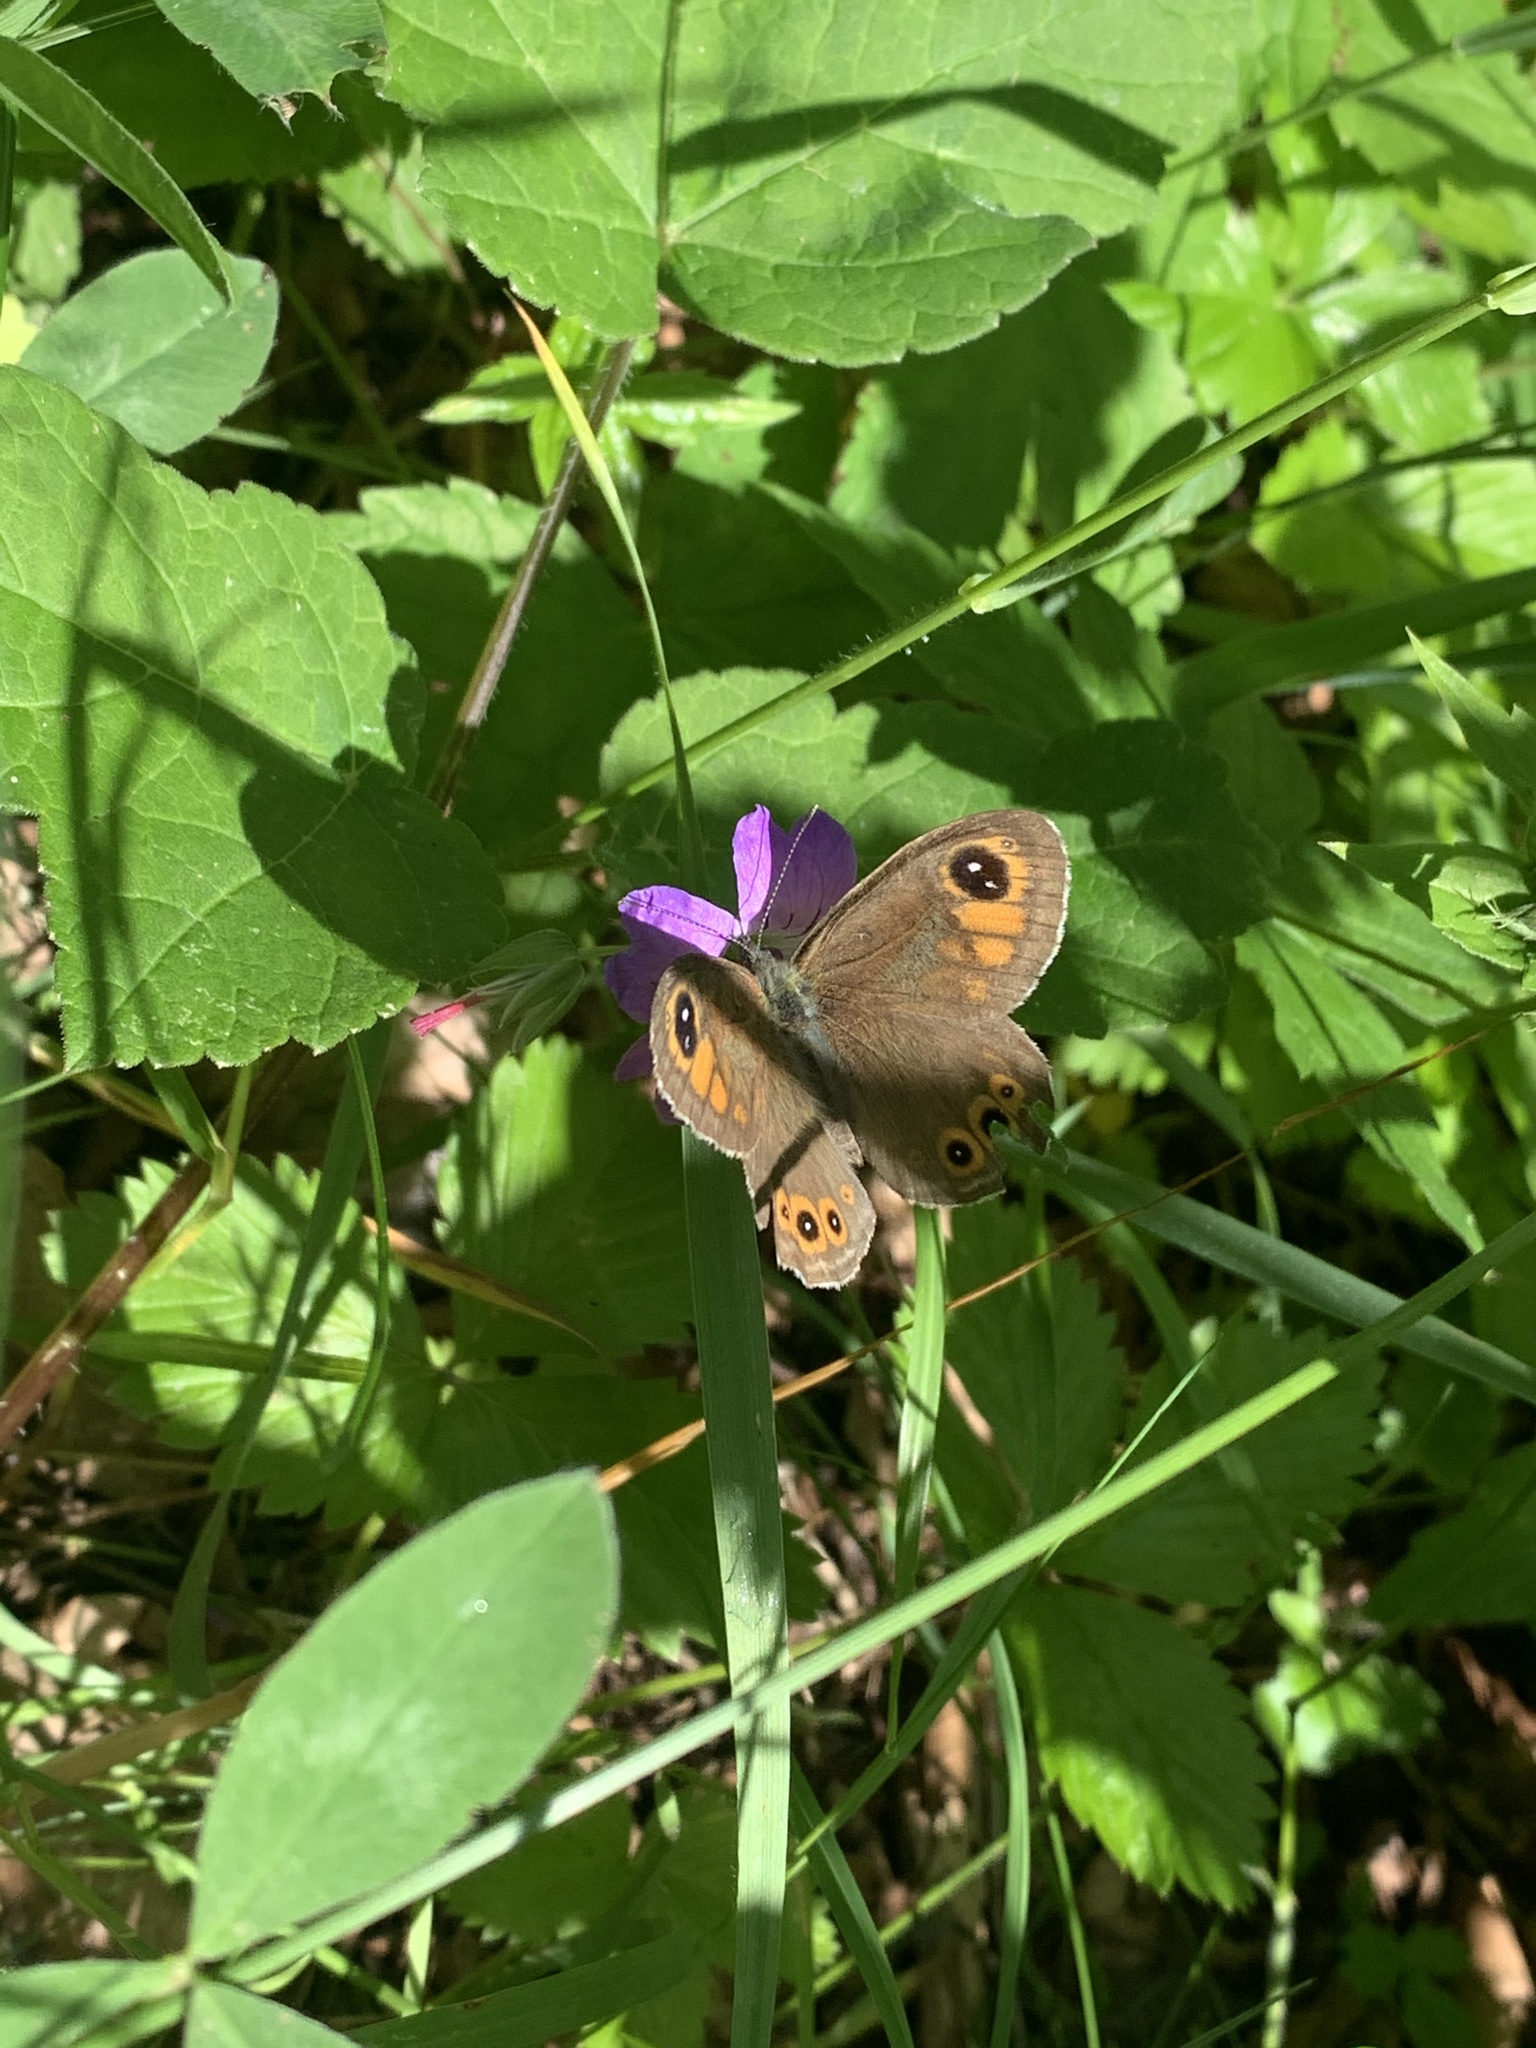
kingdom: Animalia
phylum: Arthropoda
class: Insecta
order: Lepidoptera
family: Nymphalidae
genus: Pararge
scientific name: Pararge Lasiommata maera
